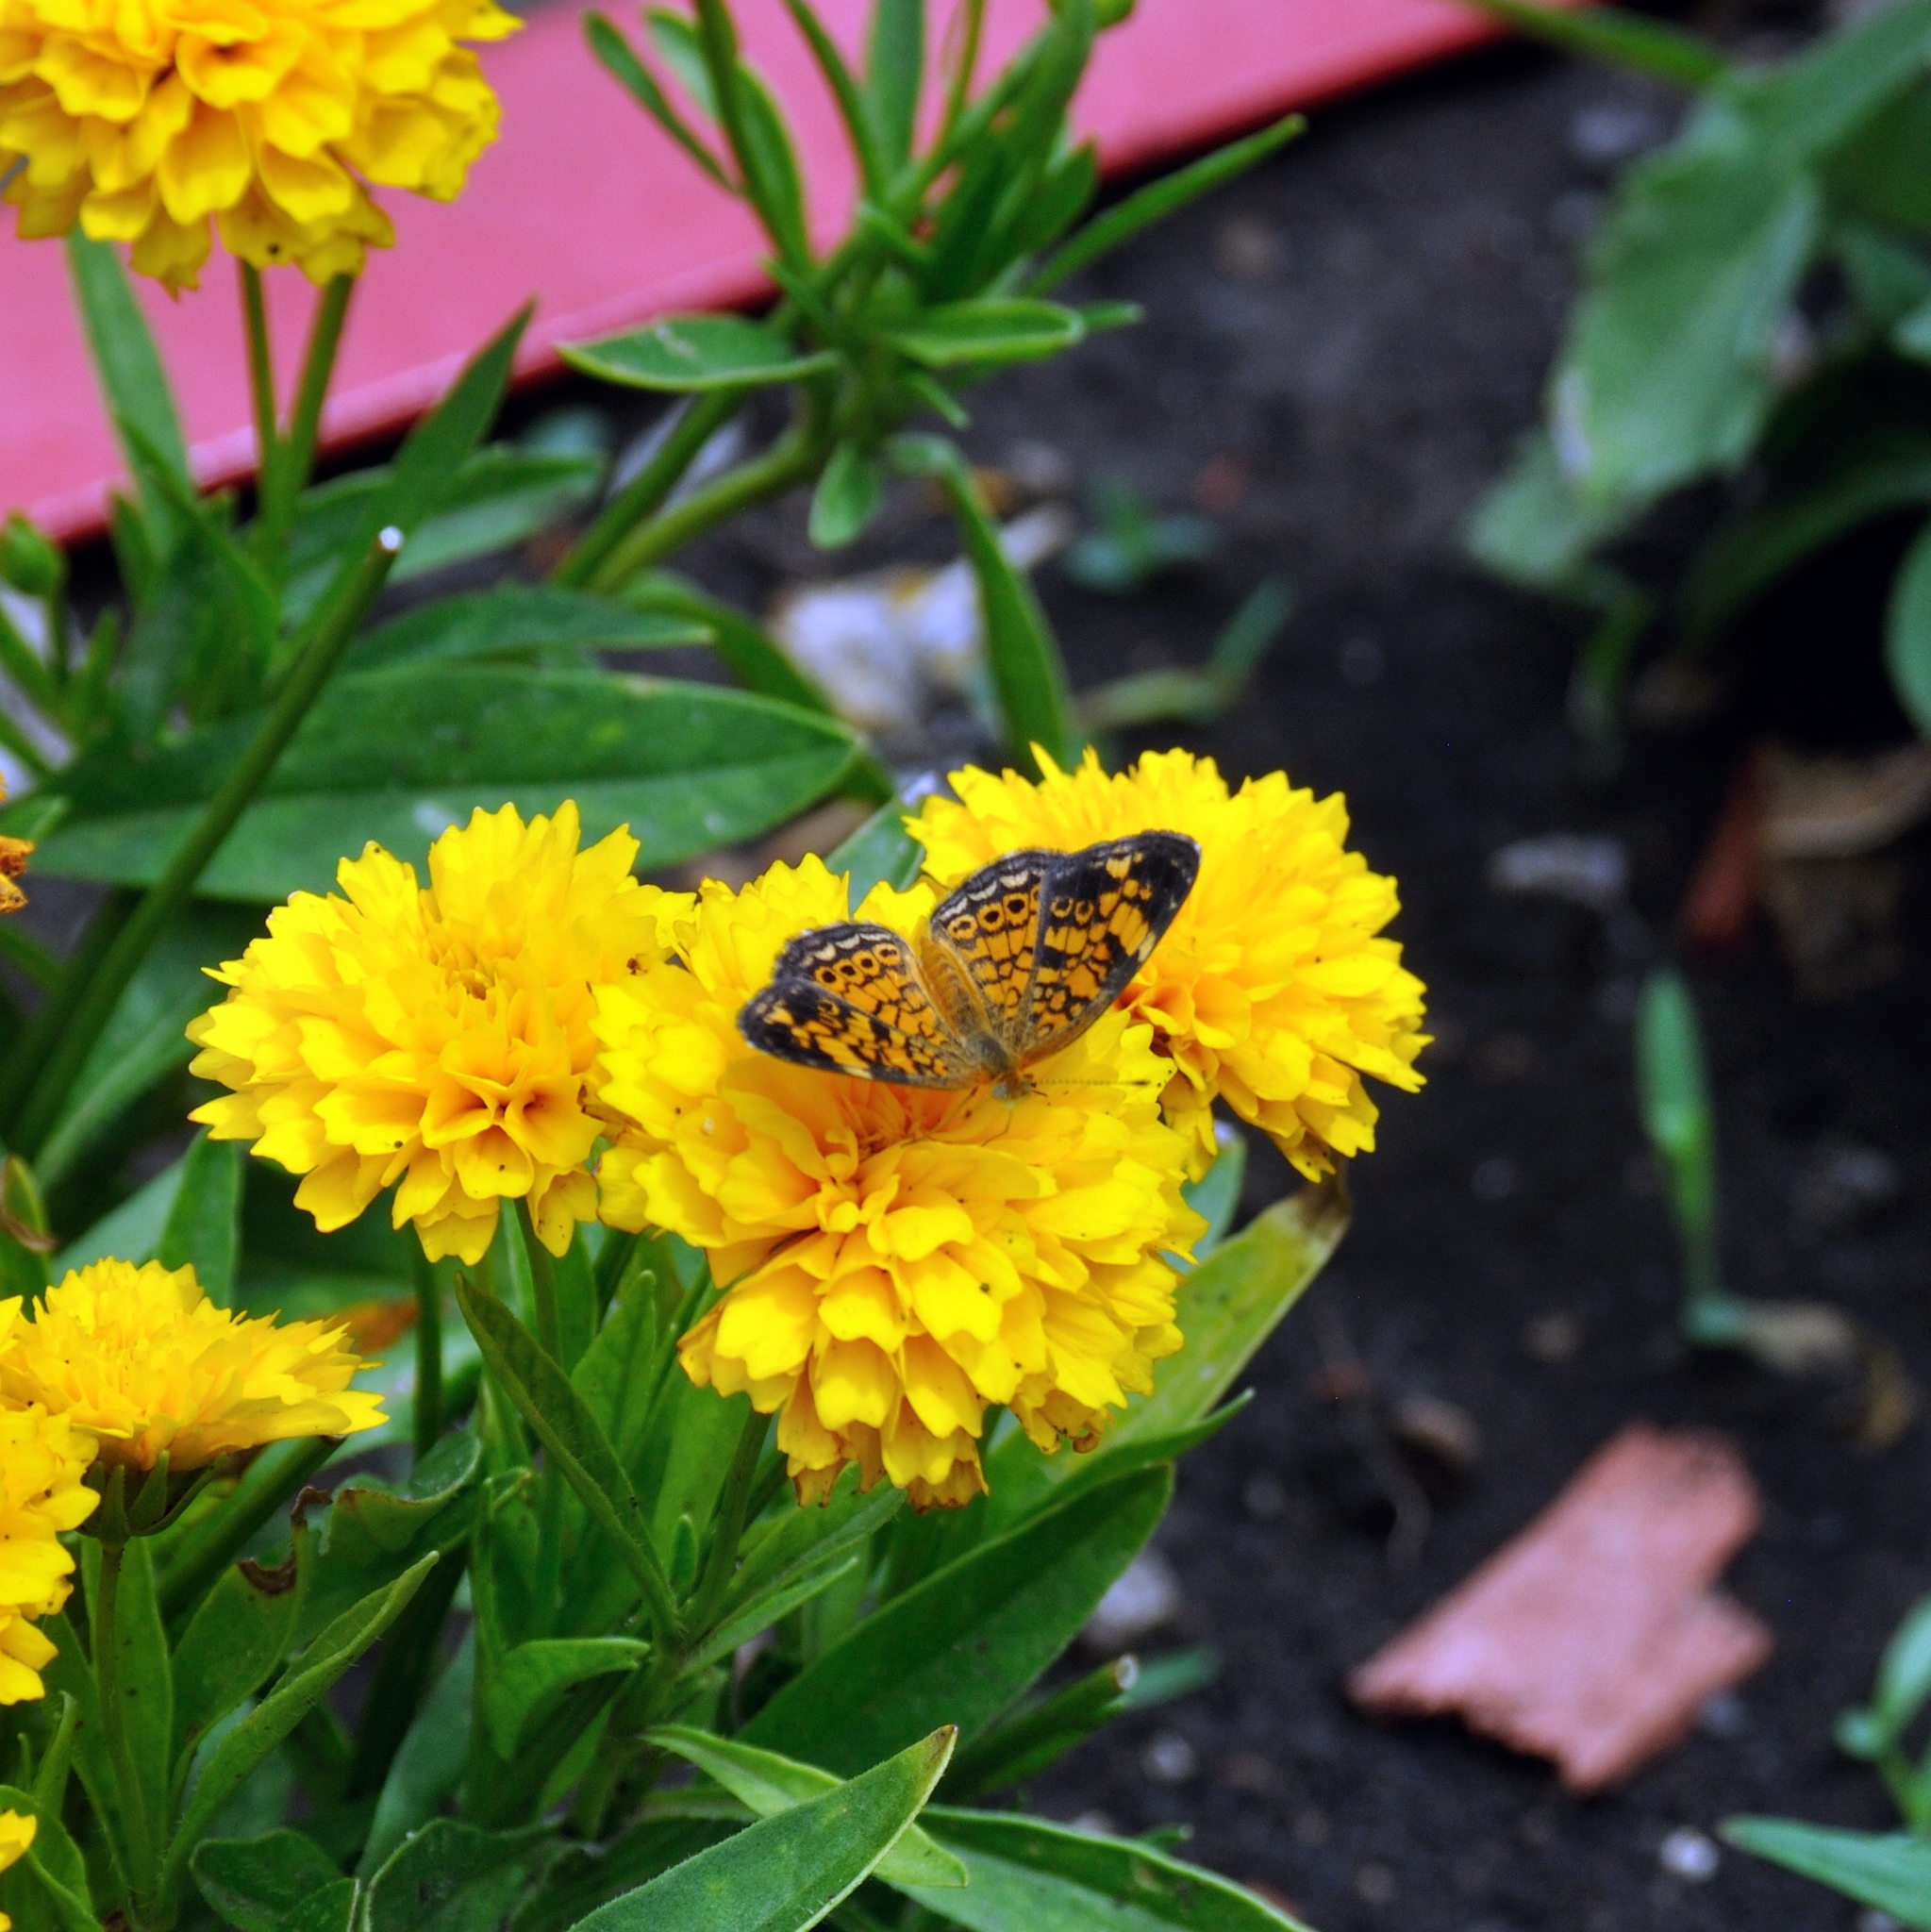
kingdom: Animalia
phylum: Arthropoda
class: Insecta
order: Lepidoptera
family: Nymphalidae
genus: Phyciodes
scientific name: Phyciodes tharos
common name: Pearl crescent
